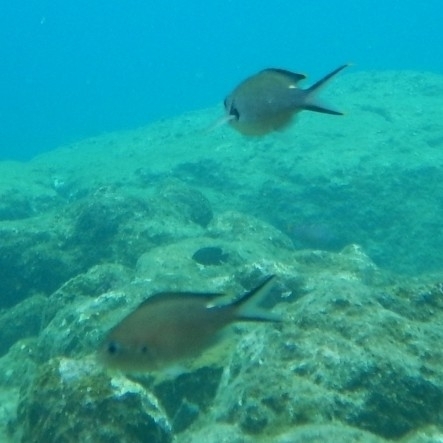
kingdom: Animalia
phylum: Chordata
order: Perciformes
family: Pomacentridae
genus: Chromis
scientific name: Chromis multilineata
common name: Brown chromis
